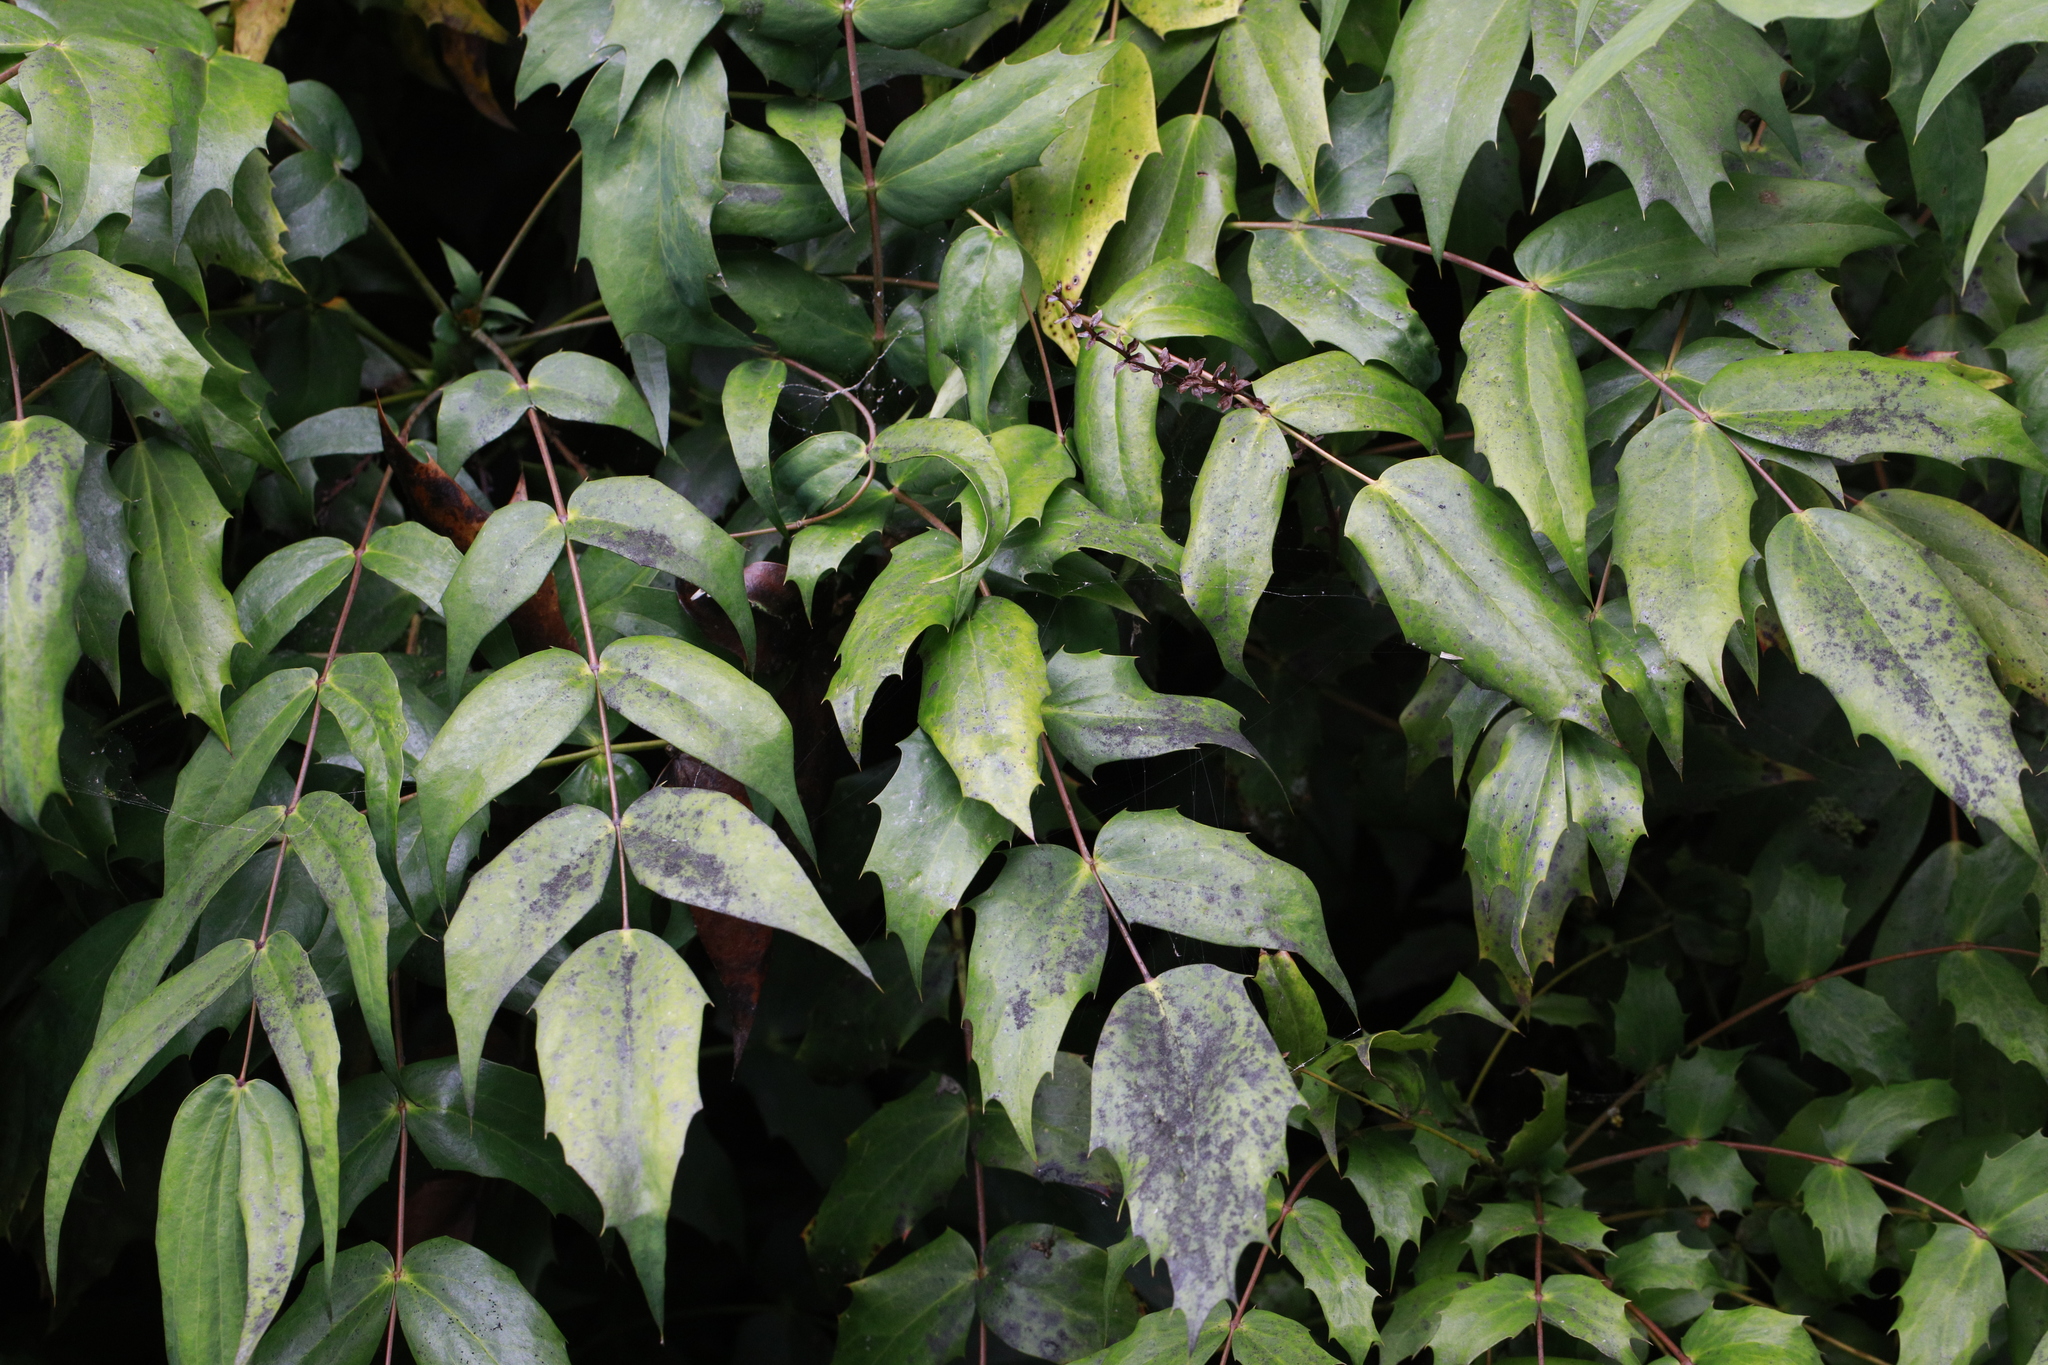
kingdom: Plantae
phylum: Tracheophyta
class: Magnoliopsida
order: Ranunculales
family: Berberidaceae
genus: Mahonia
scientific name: Mahonia bealei
